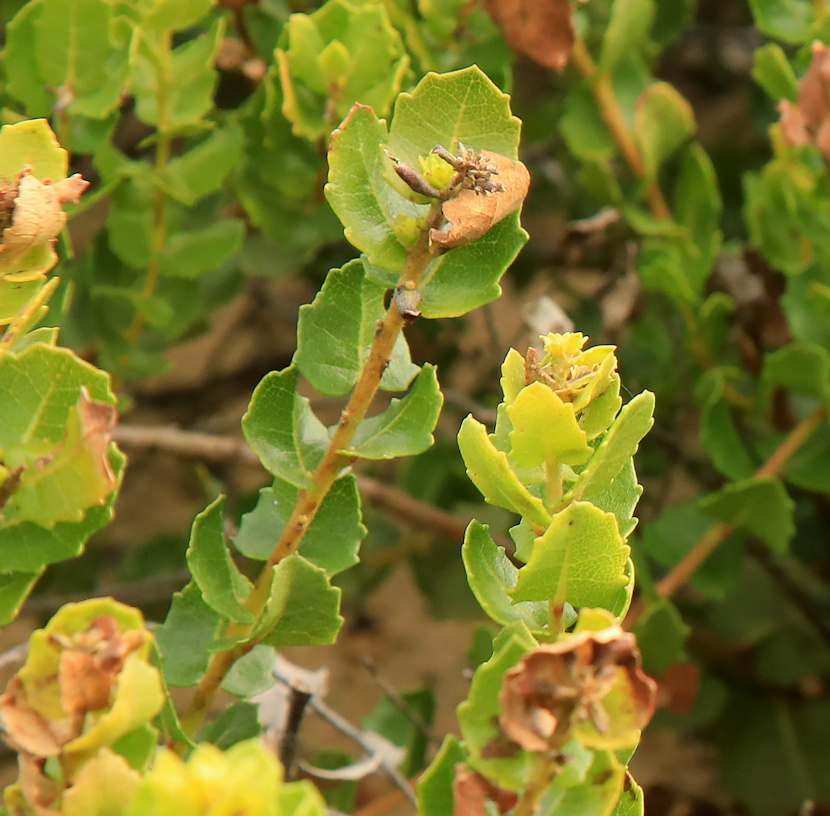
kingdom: Plantae
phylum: Tracheophyta
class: Magnoliopsida
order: Fagales
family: Myricaceae
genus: Morella
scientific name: Morella cordifolia
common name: Waxberry
